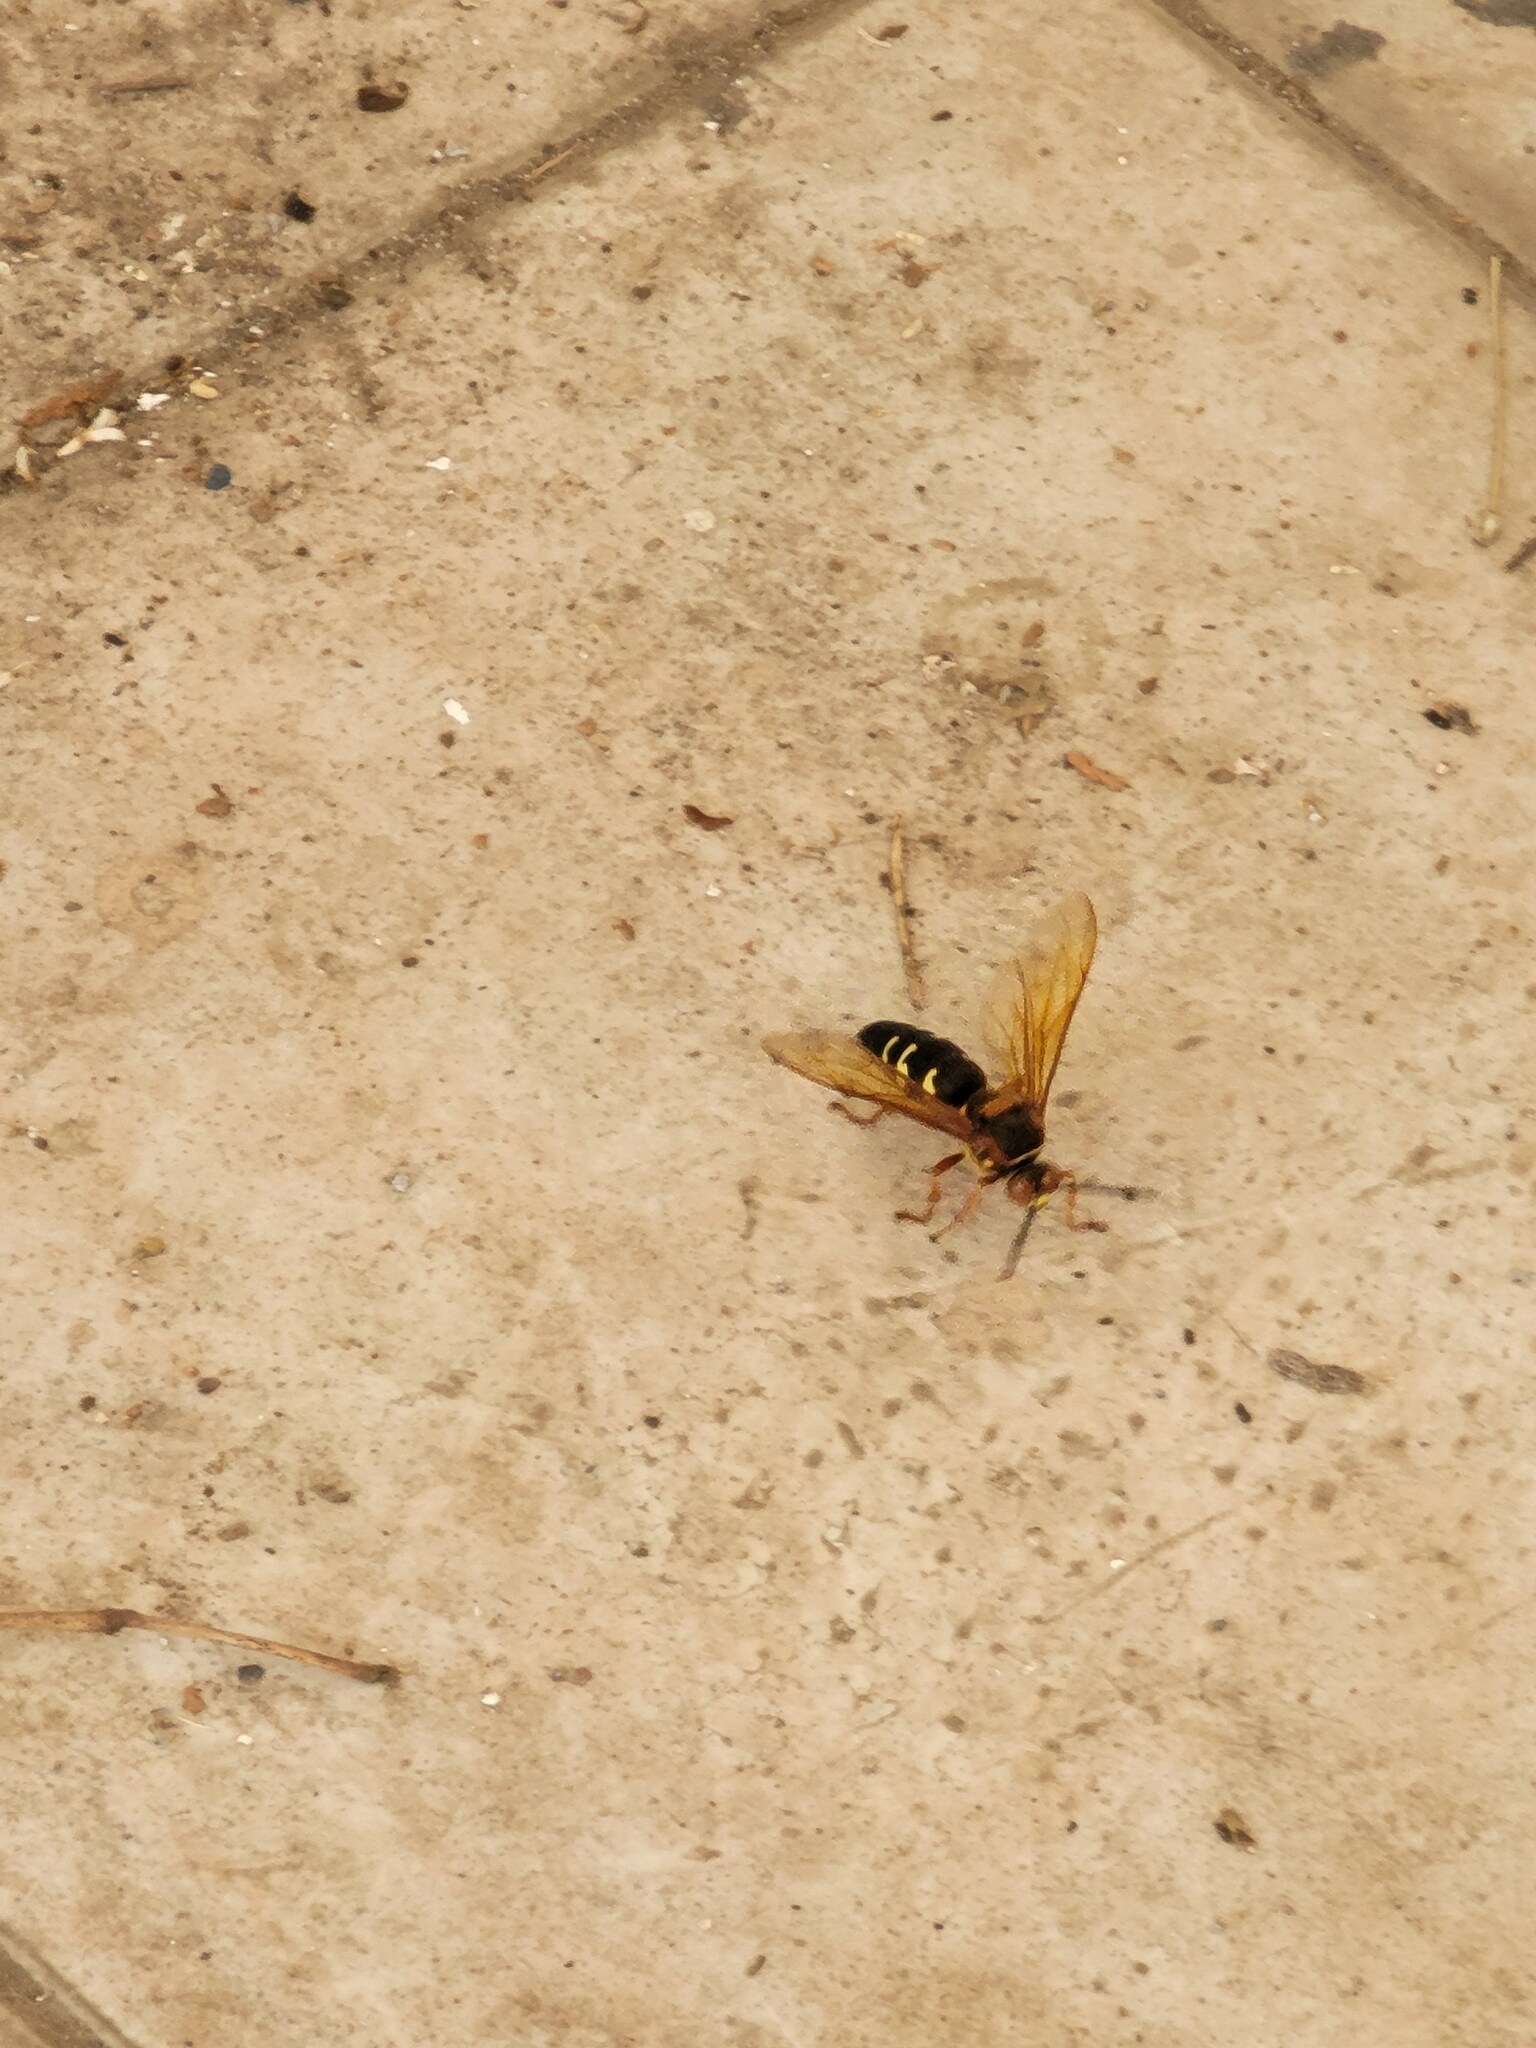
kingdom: Animalia
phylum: Arthropoda
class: Insecta
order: Hymenoptera
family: Crabronidae
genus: Sphecius
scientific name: Sphecius speciosus
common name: Cicada killer
